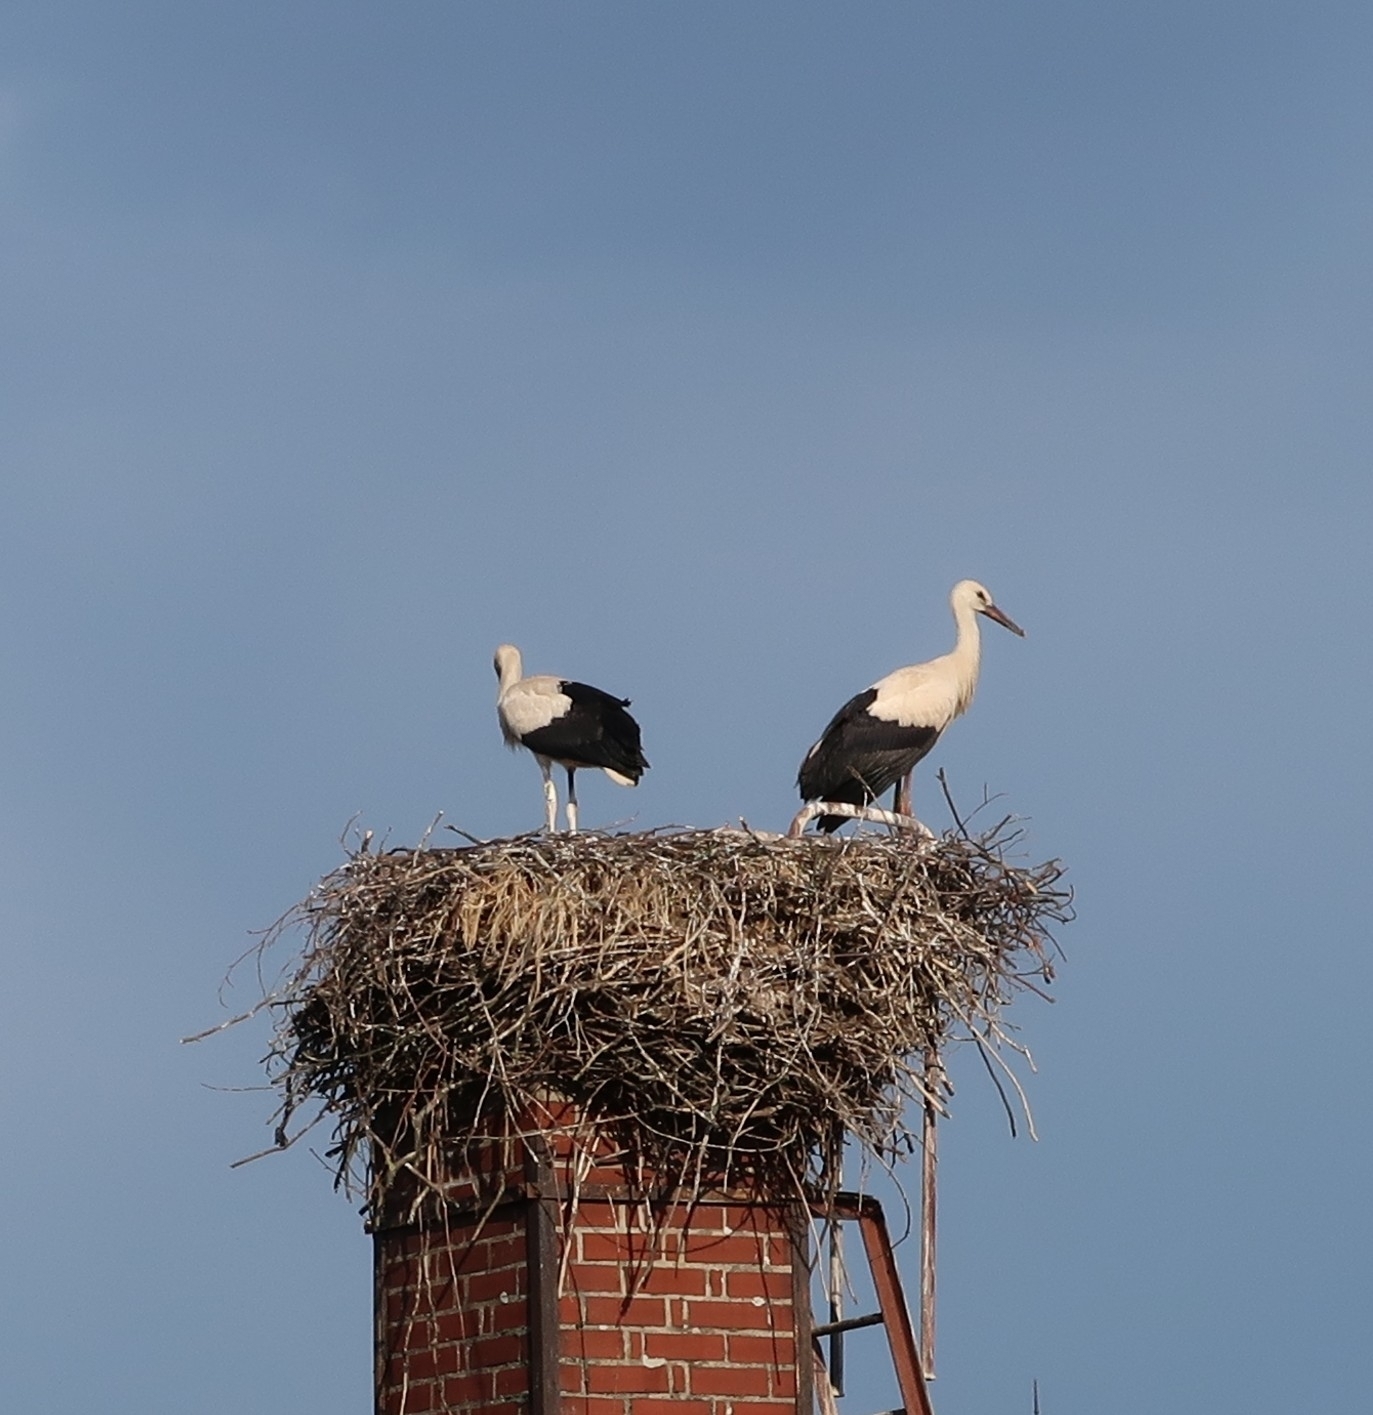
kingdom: Animalia
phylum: Chordata
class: Aves
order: Ciconiiformes
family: Ciconiidae
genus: Ciconia
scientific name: Ciconia ciconia
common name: White stork
